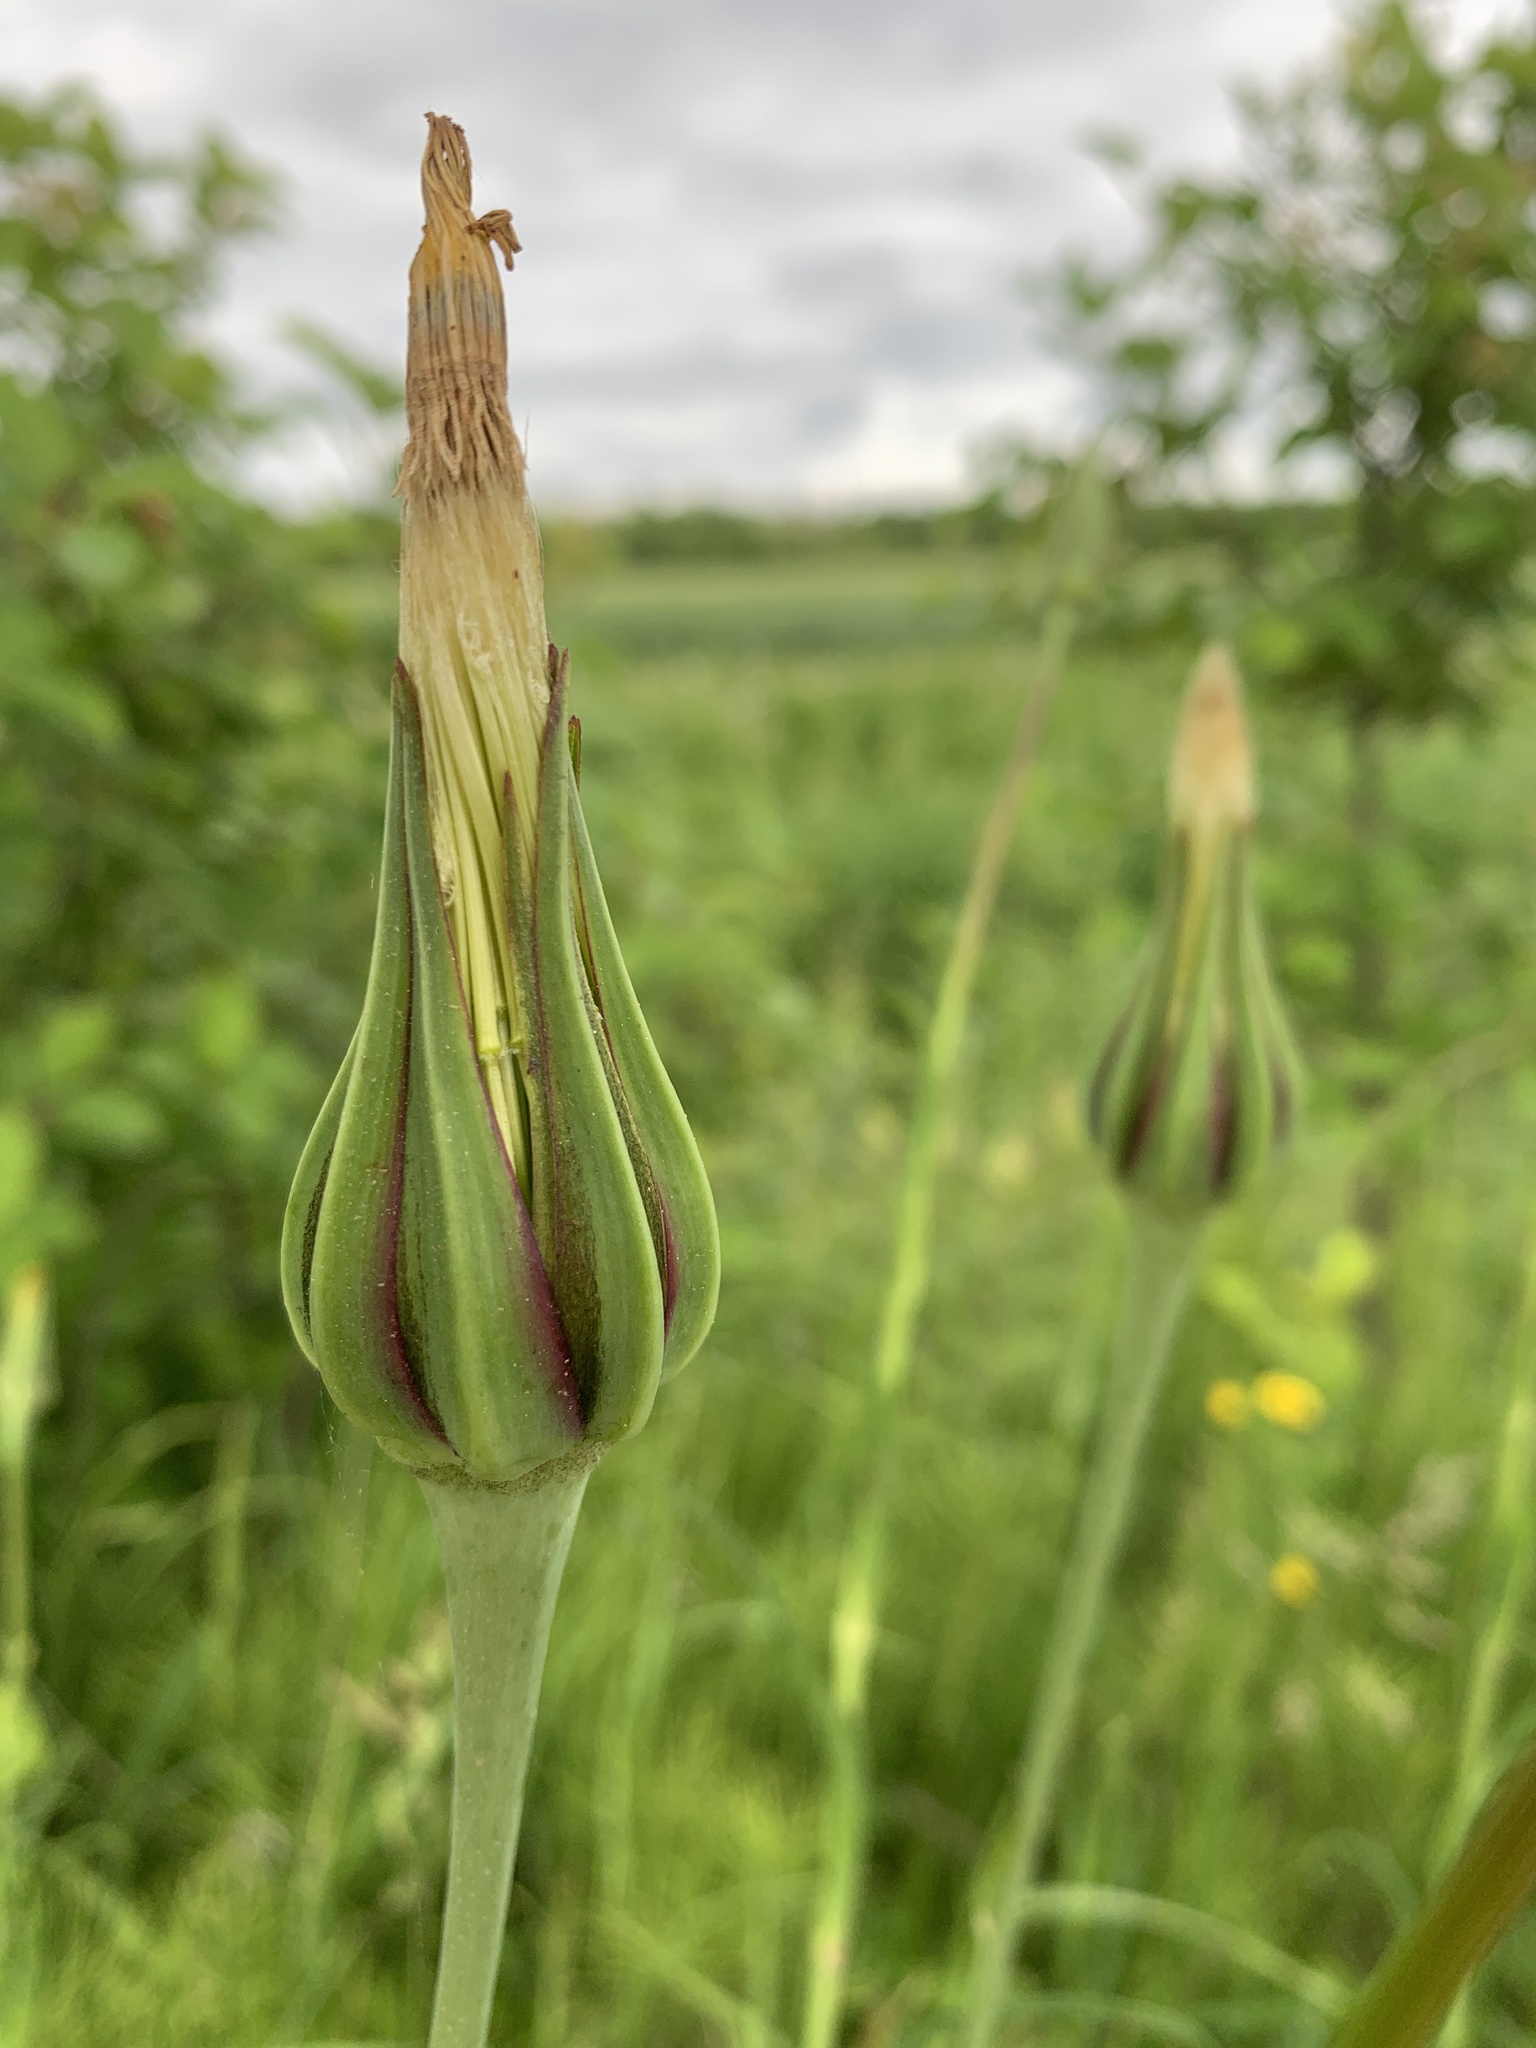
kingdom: Plantae
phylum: Tracheophyta
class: Magnoliopsida
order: Asterales
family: Asteraceae
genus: Tragopogon
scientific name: Tragopogon pratensis
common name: Goat's-beard
